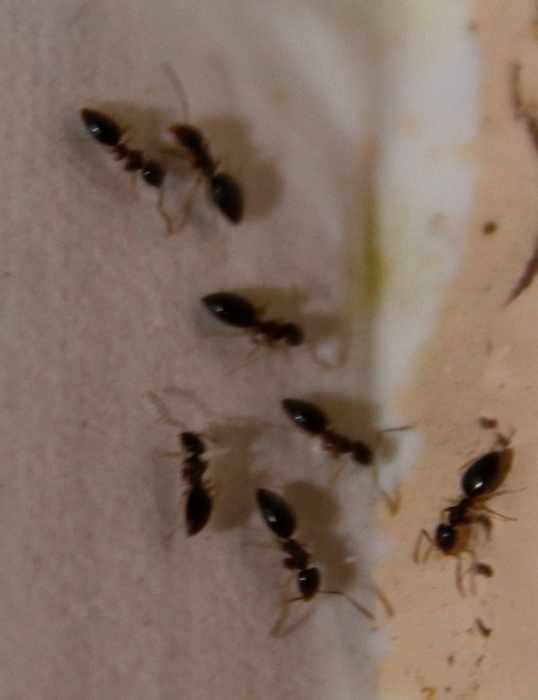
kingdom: Animalia
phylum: Arthropoda
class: Insecta
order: Hymenoptera
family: Formicidae
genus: Tapinoma
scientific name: Tapinoma pallipes
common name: Ant
